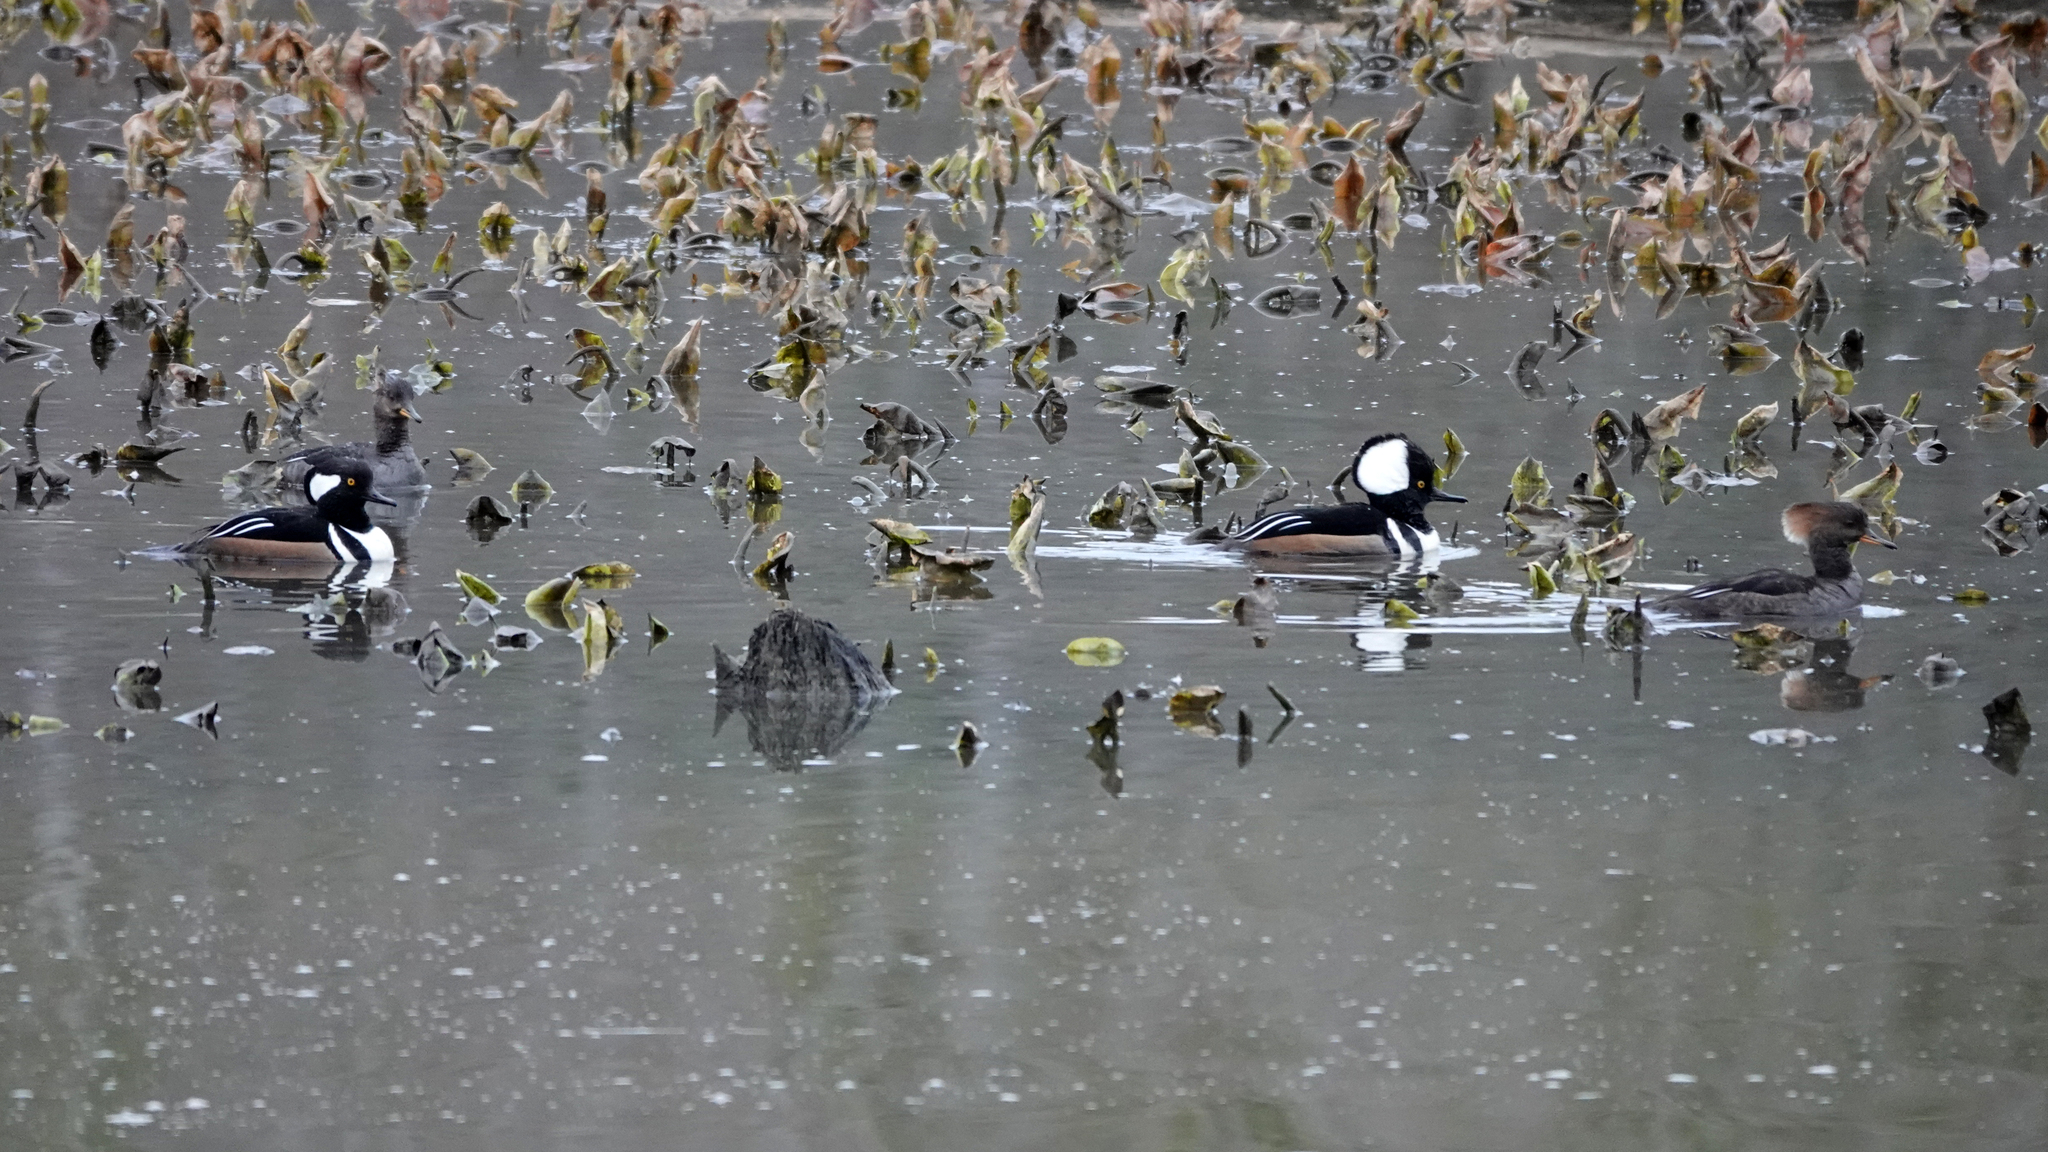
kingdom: Animalia
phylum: Chordata
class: Aves
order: Anseriformes
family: Anatidae
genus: Lophodytes
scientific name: Lophodytes cucullatus
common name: Hooded merganser
